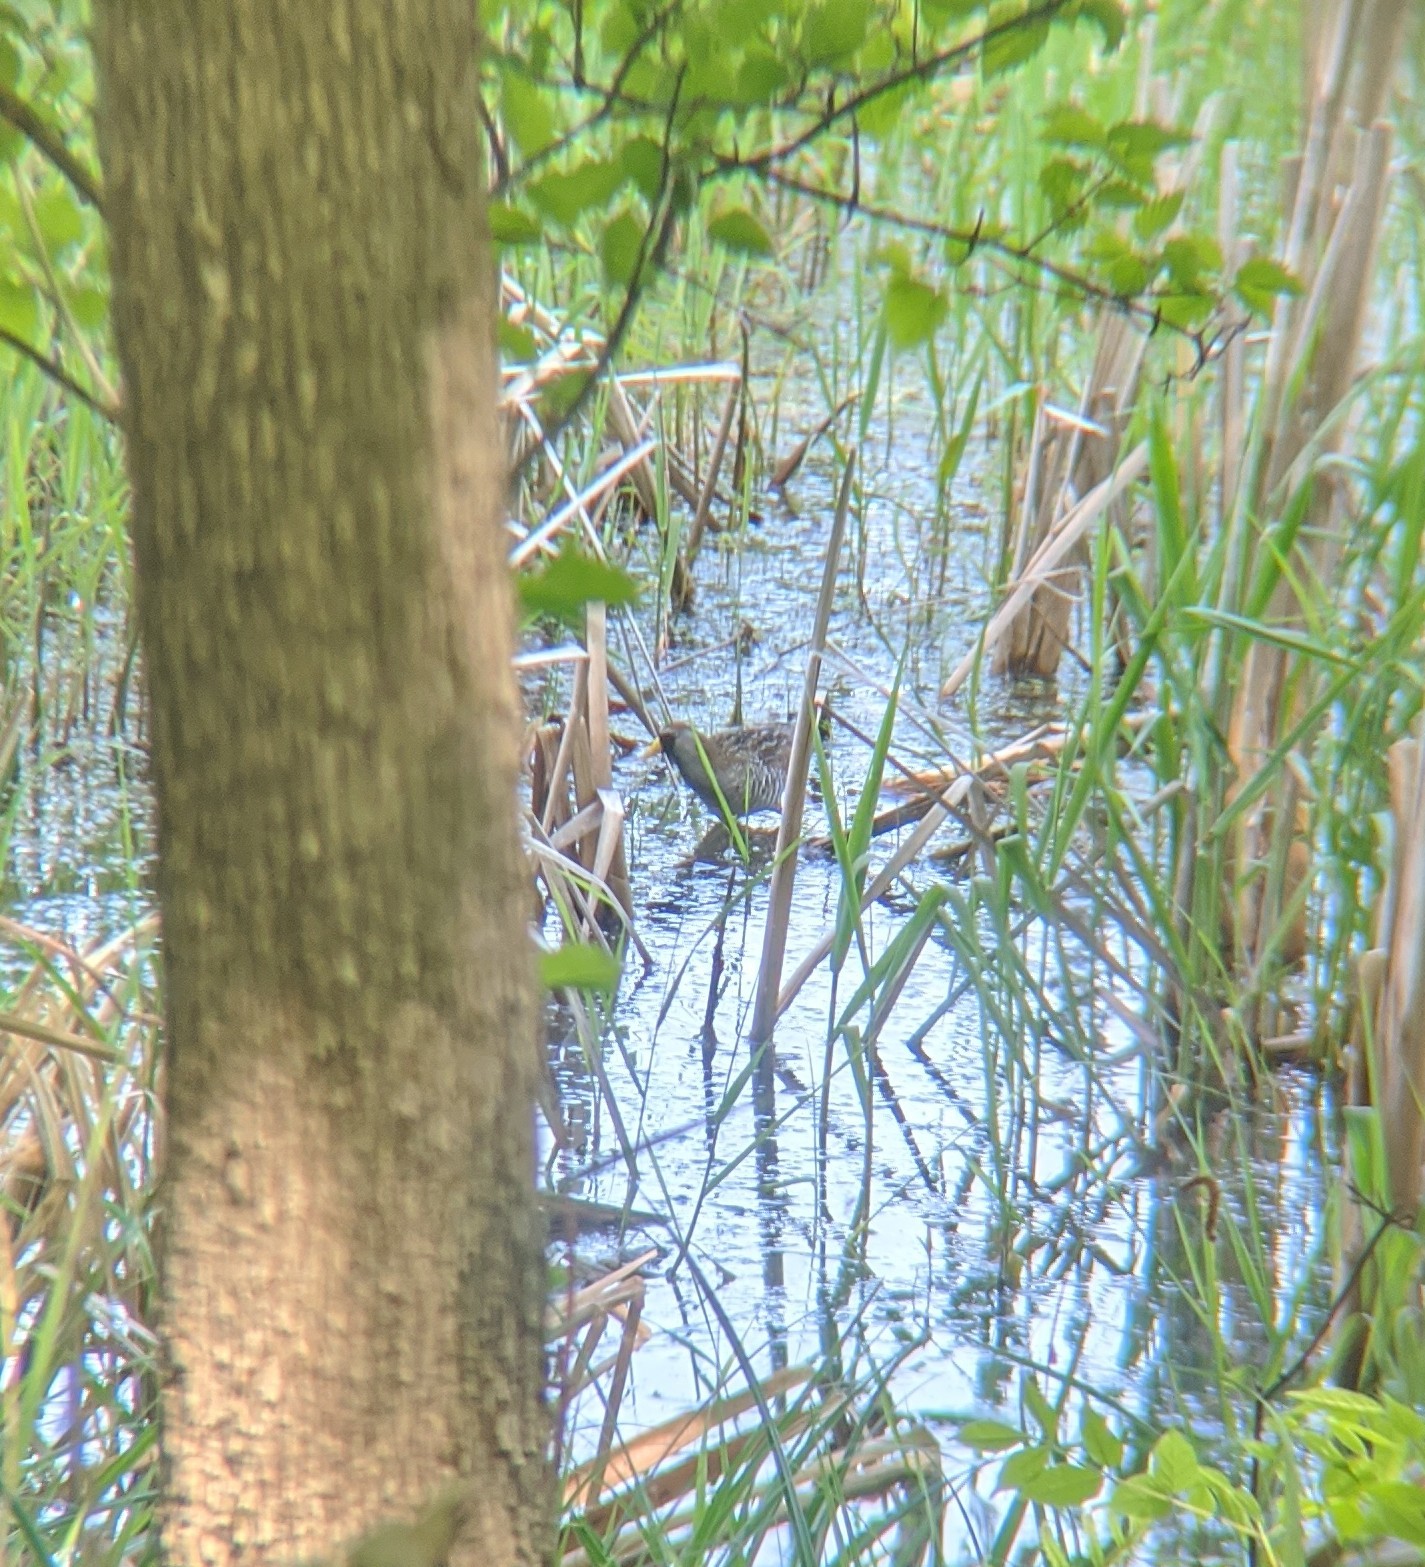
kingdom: Animalia
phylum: Chordata
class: Aves
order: Gruiformes
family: Rallidae
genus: Porzana
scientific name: Porzana carolina
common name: Sora
